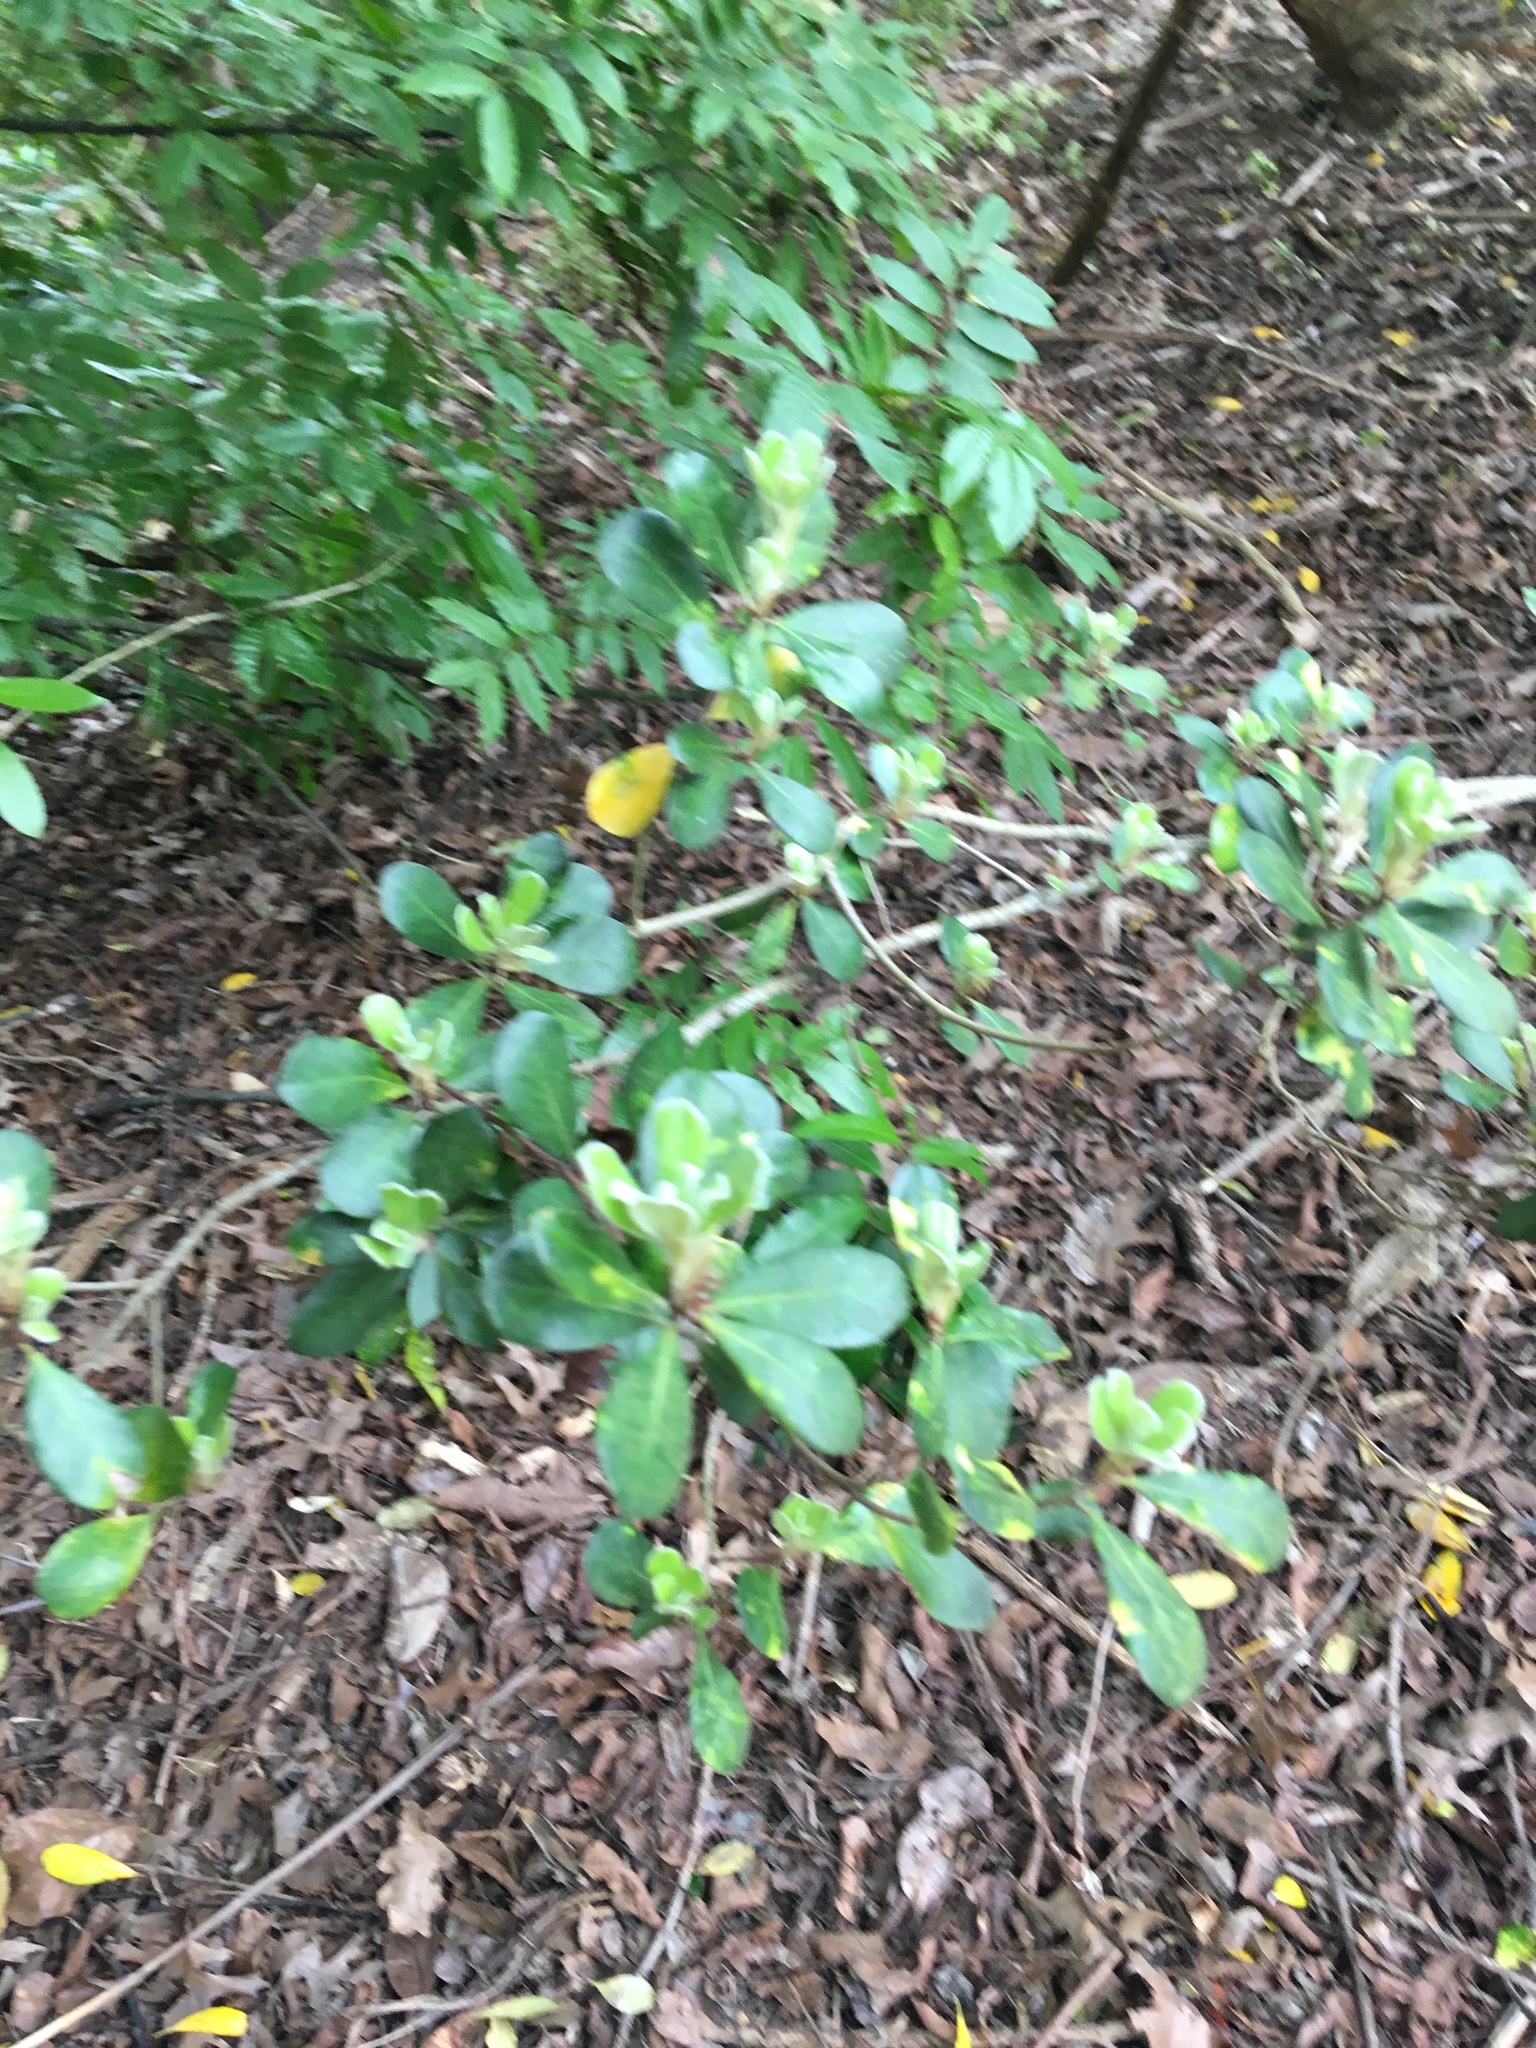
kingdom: Plantae
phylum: Tracheophyta
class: Magnoliopsida
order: Apiales
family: Pittosporaceae
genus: Pittosporum
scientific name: Pittosporum crassifolium
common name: Karo
